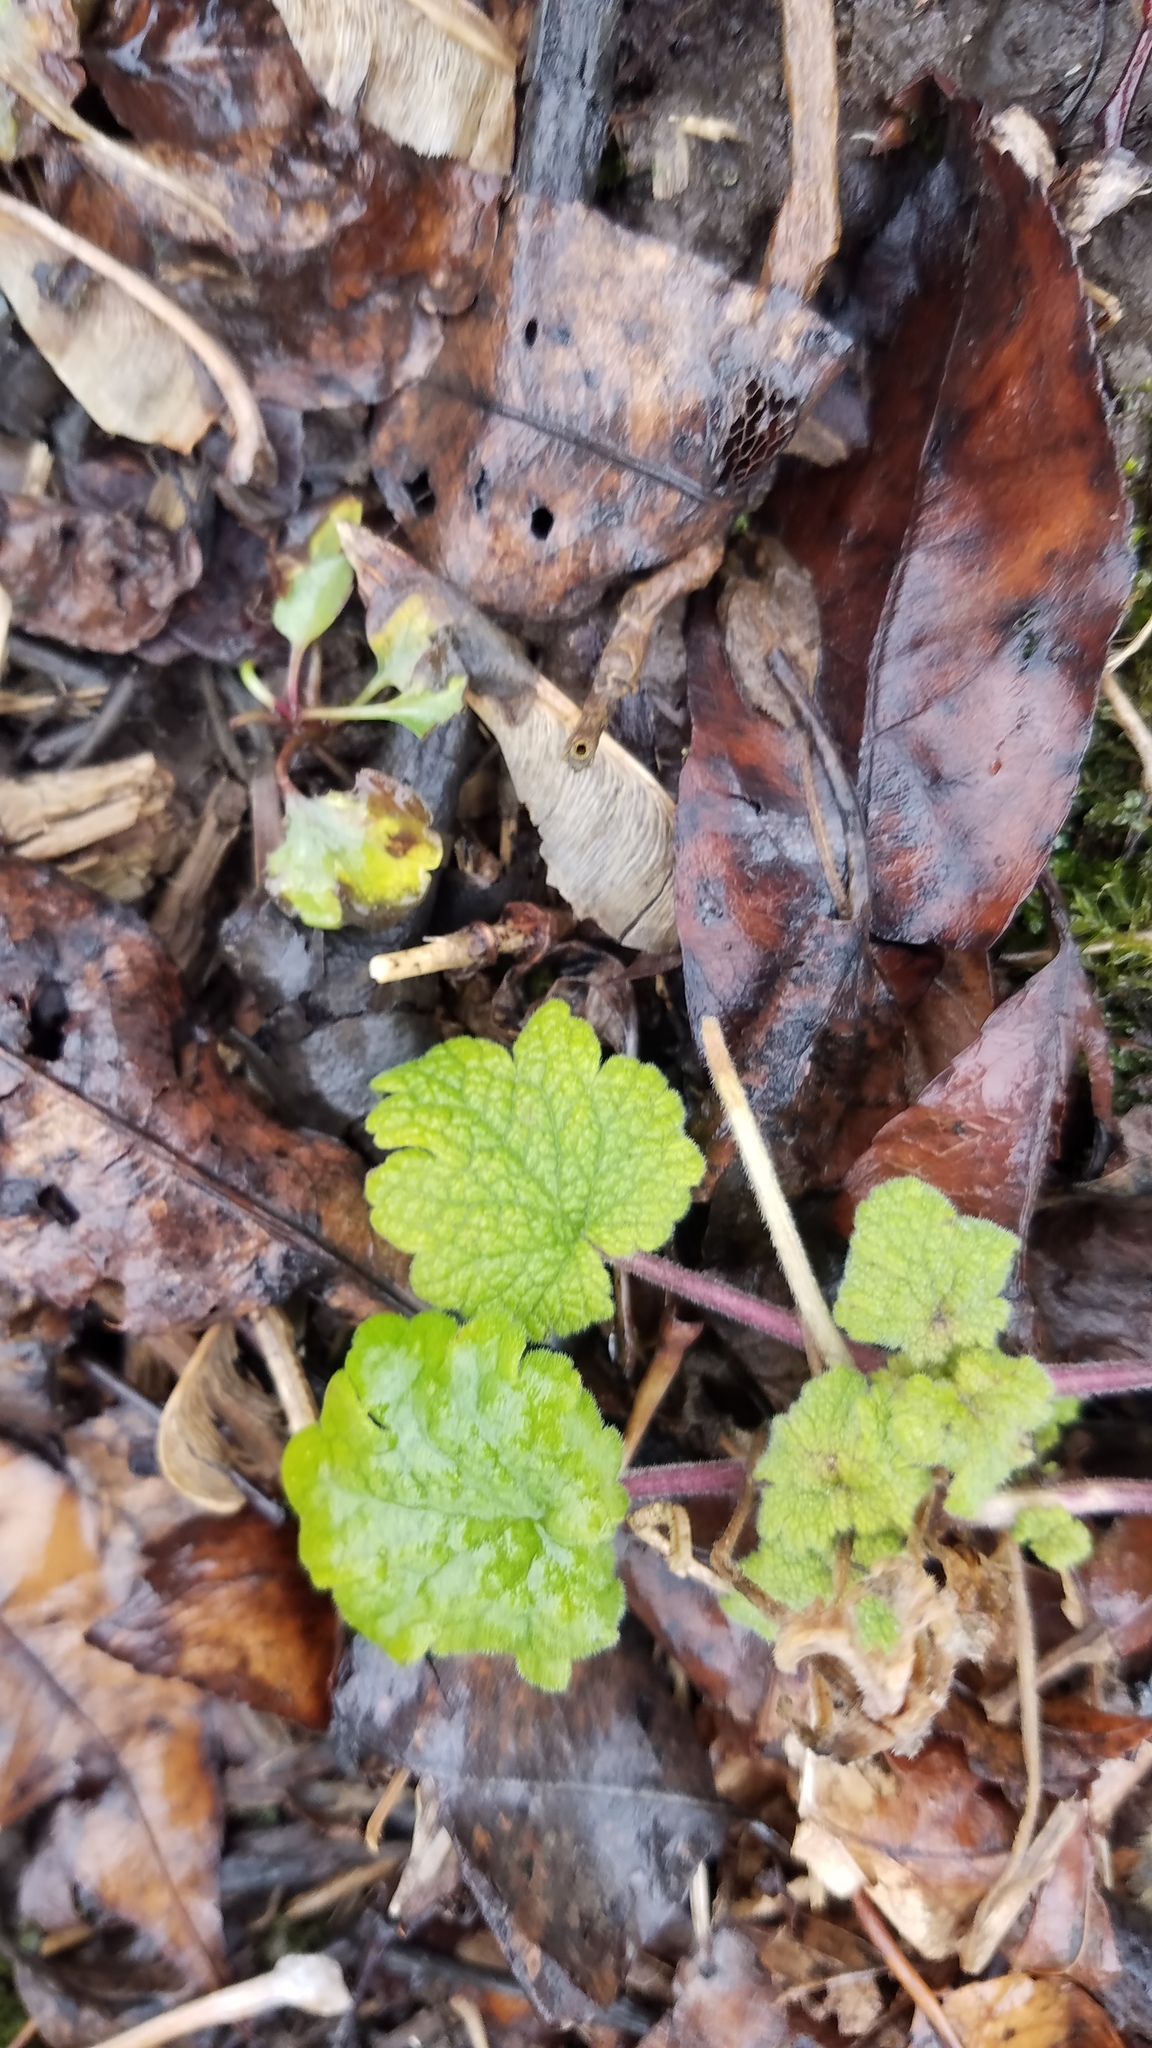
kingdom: Plantae
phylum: Tracheophyta
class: Magnoliopsida
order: Lamiales
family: Lamiaceae
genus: Leonurus
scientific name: Leonurus cardiaca
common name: Motherwort
